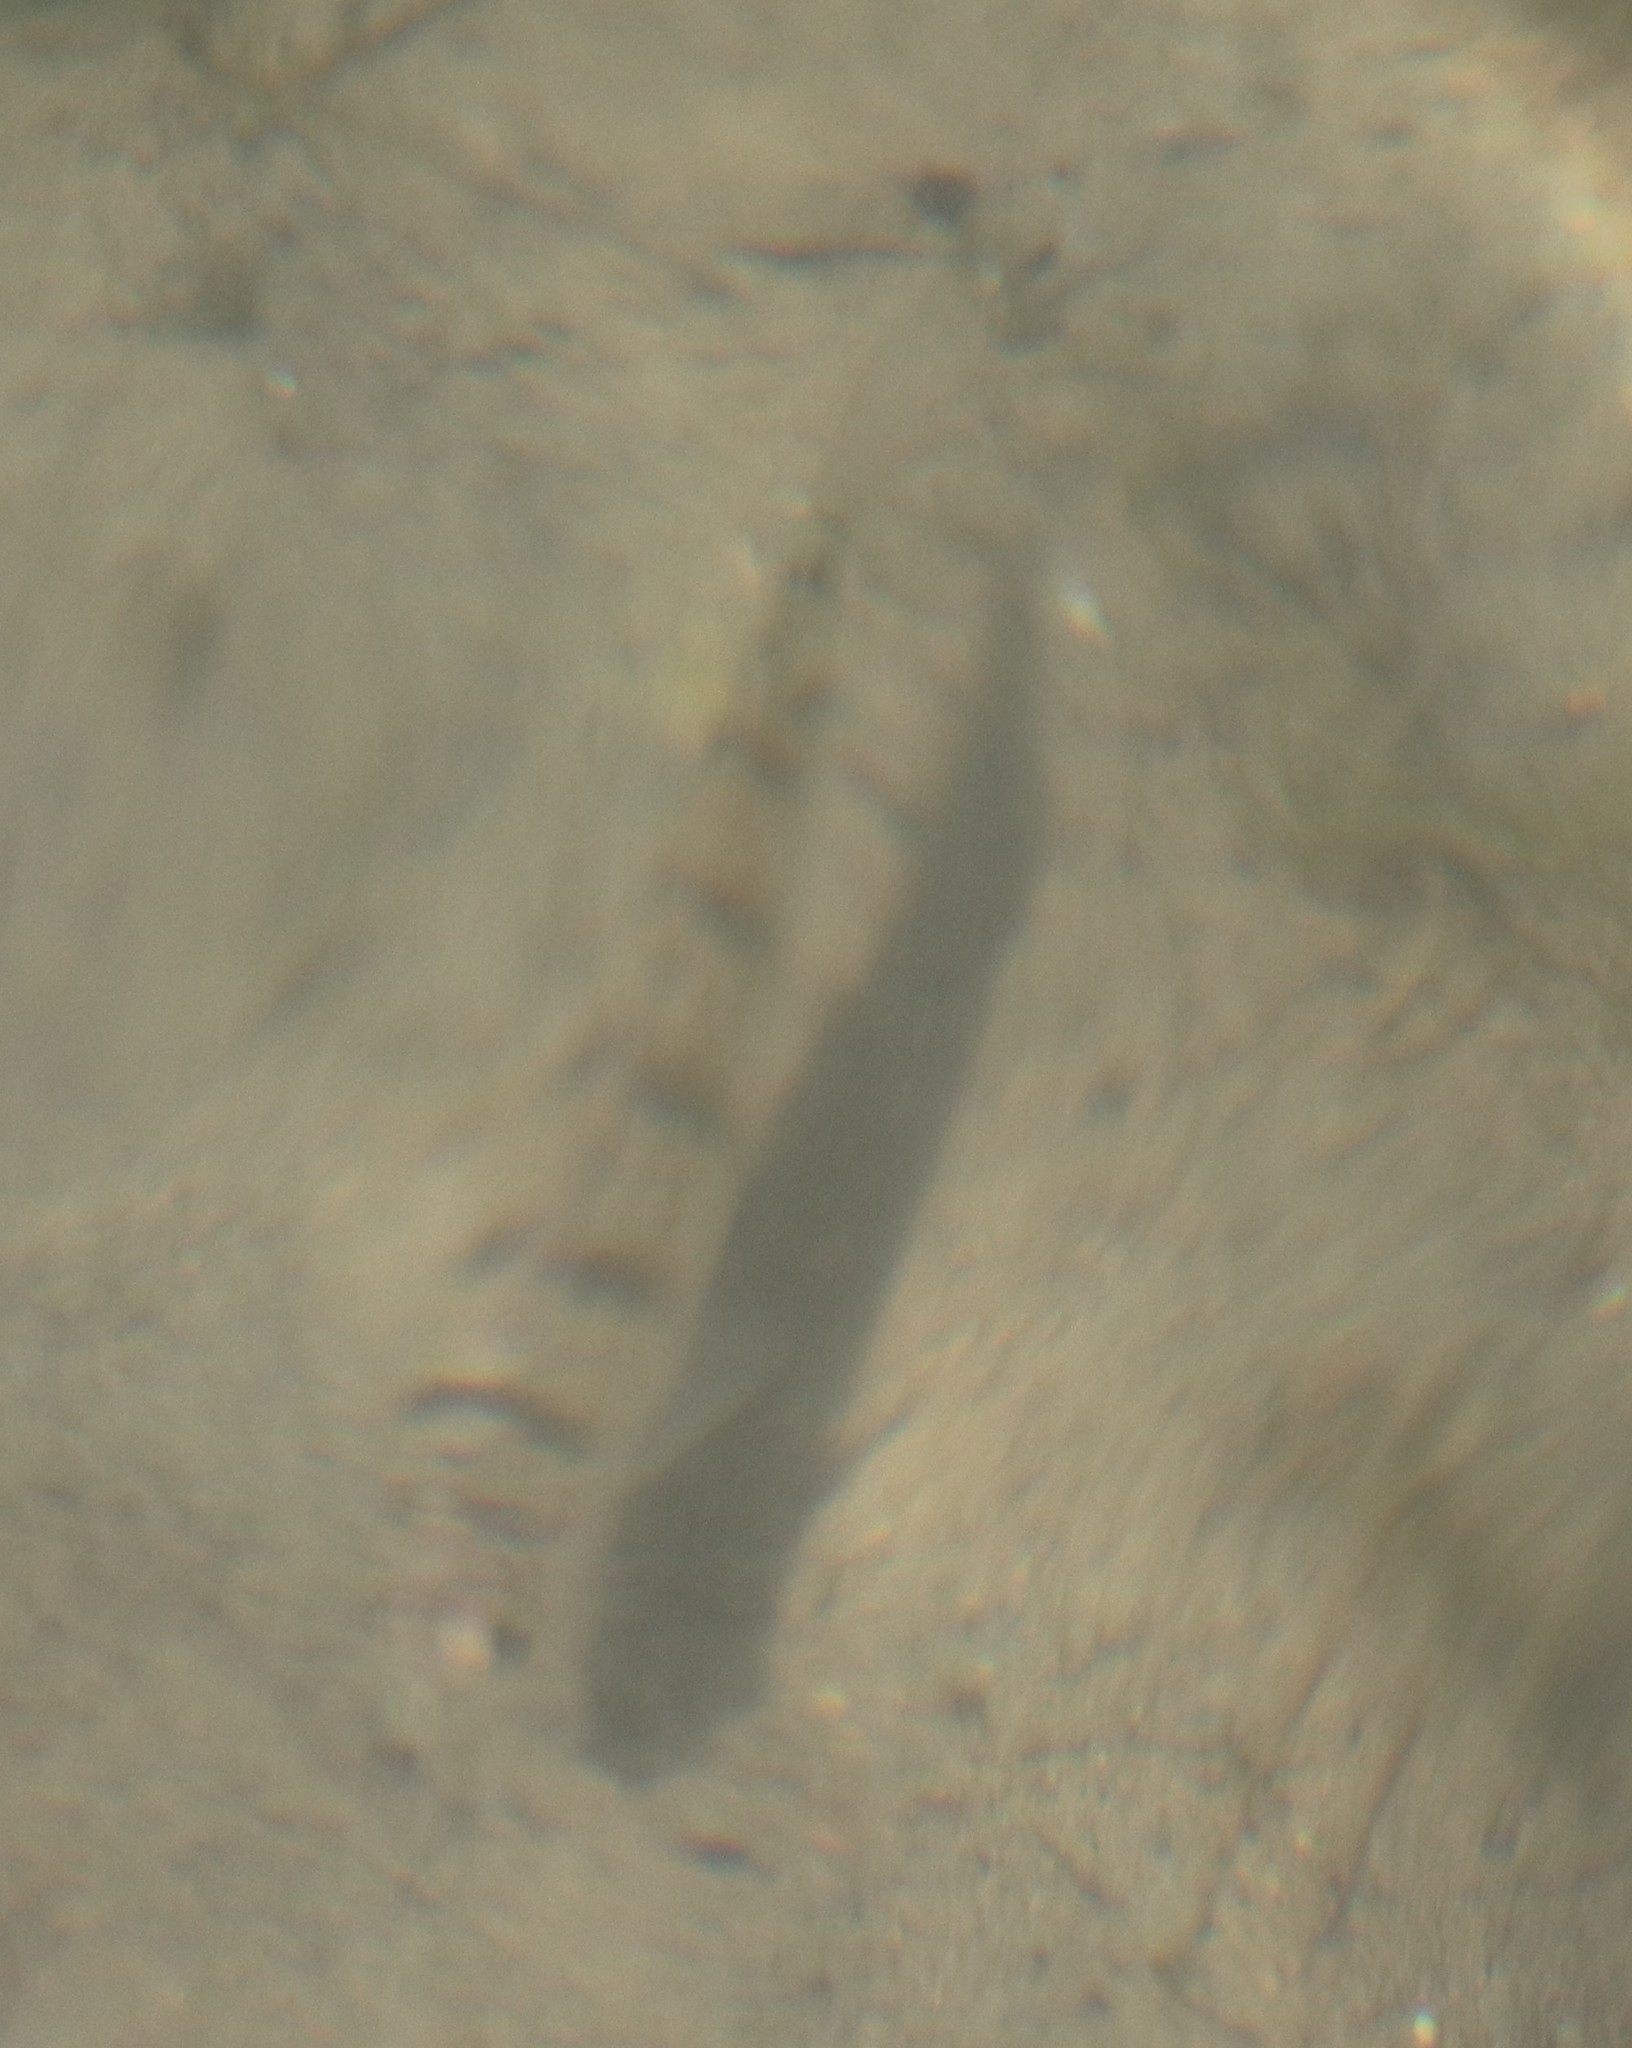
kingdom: Animalia
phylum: Chordata
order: Perciformes
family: Percidae
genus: Perca
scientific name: Perca flavescens
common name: Yellow perch
